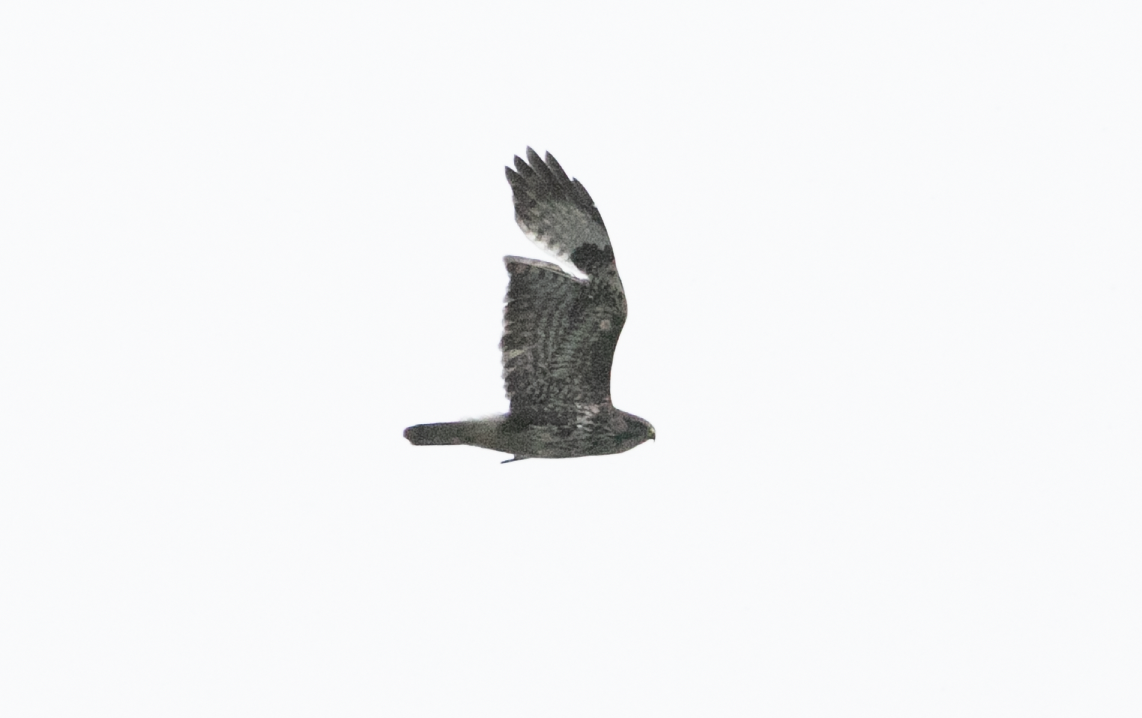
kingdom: Animalia
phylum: Chordata
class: Aves
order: Accipitriformes
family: Accipitridae
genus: Buteo
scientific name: Buteo buteo
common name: Common buzzard
